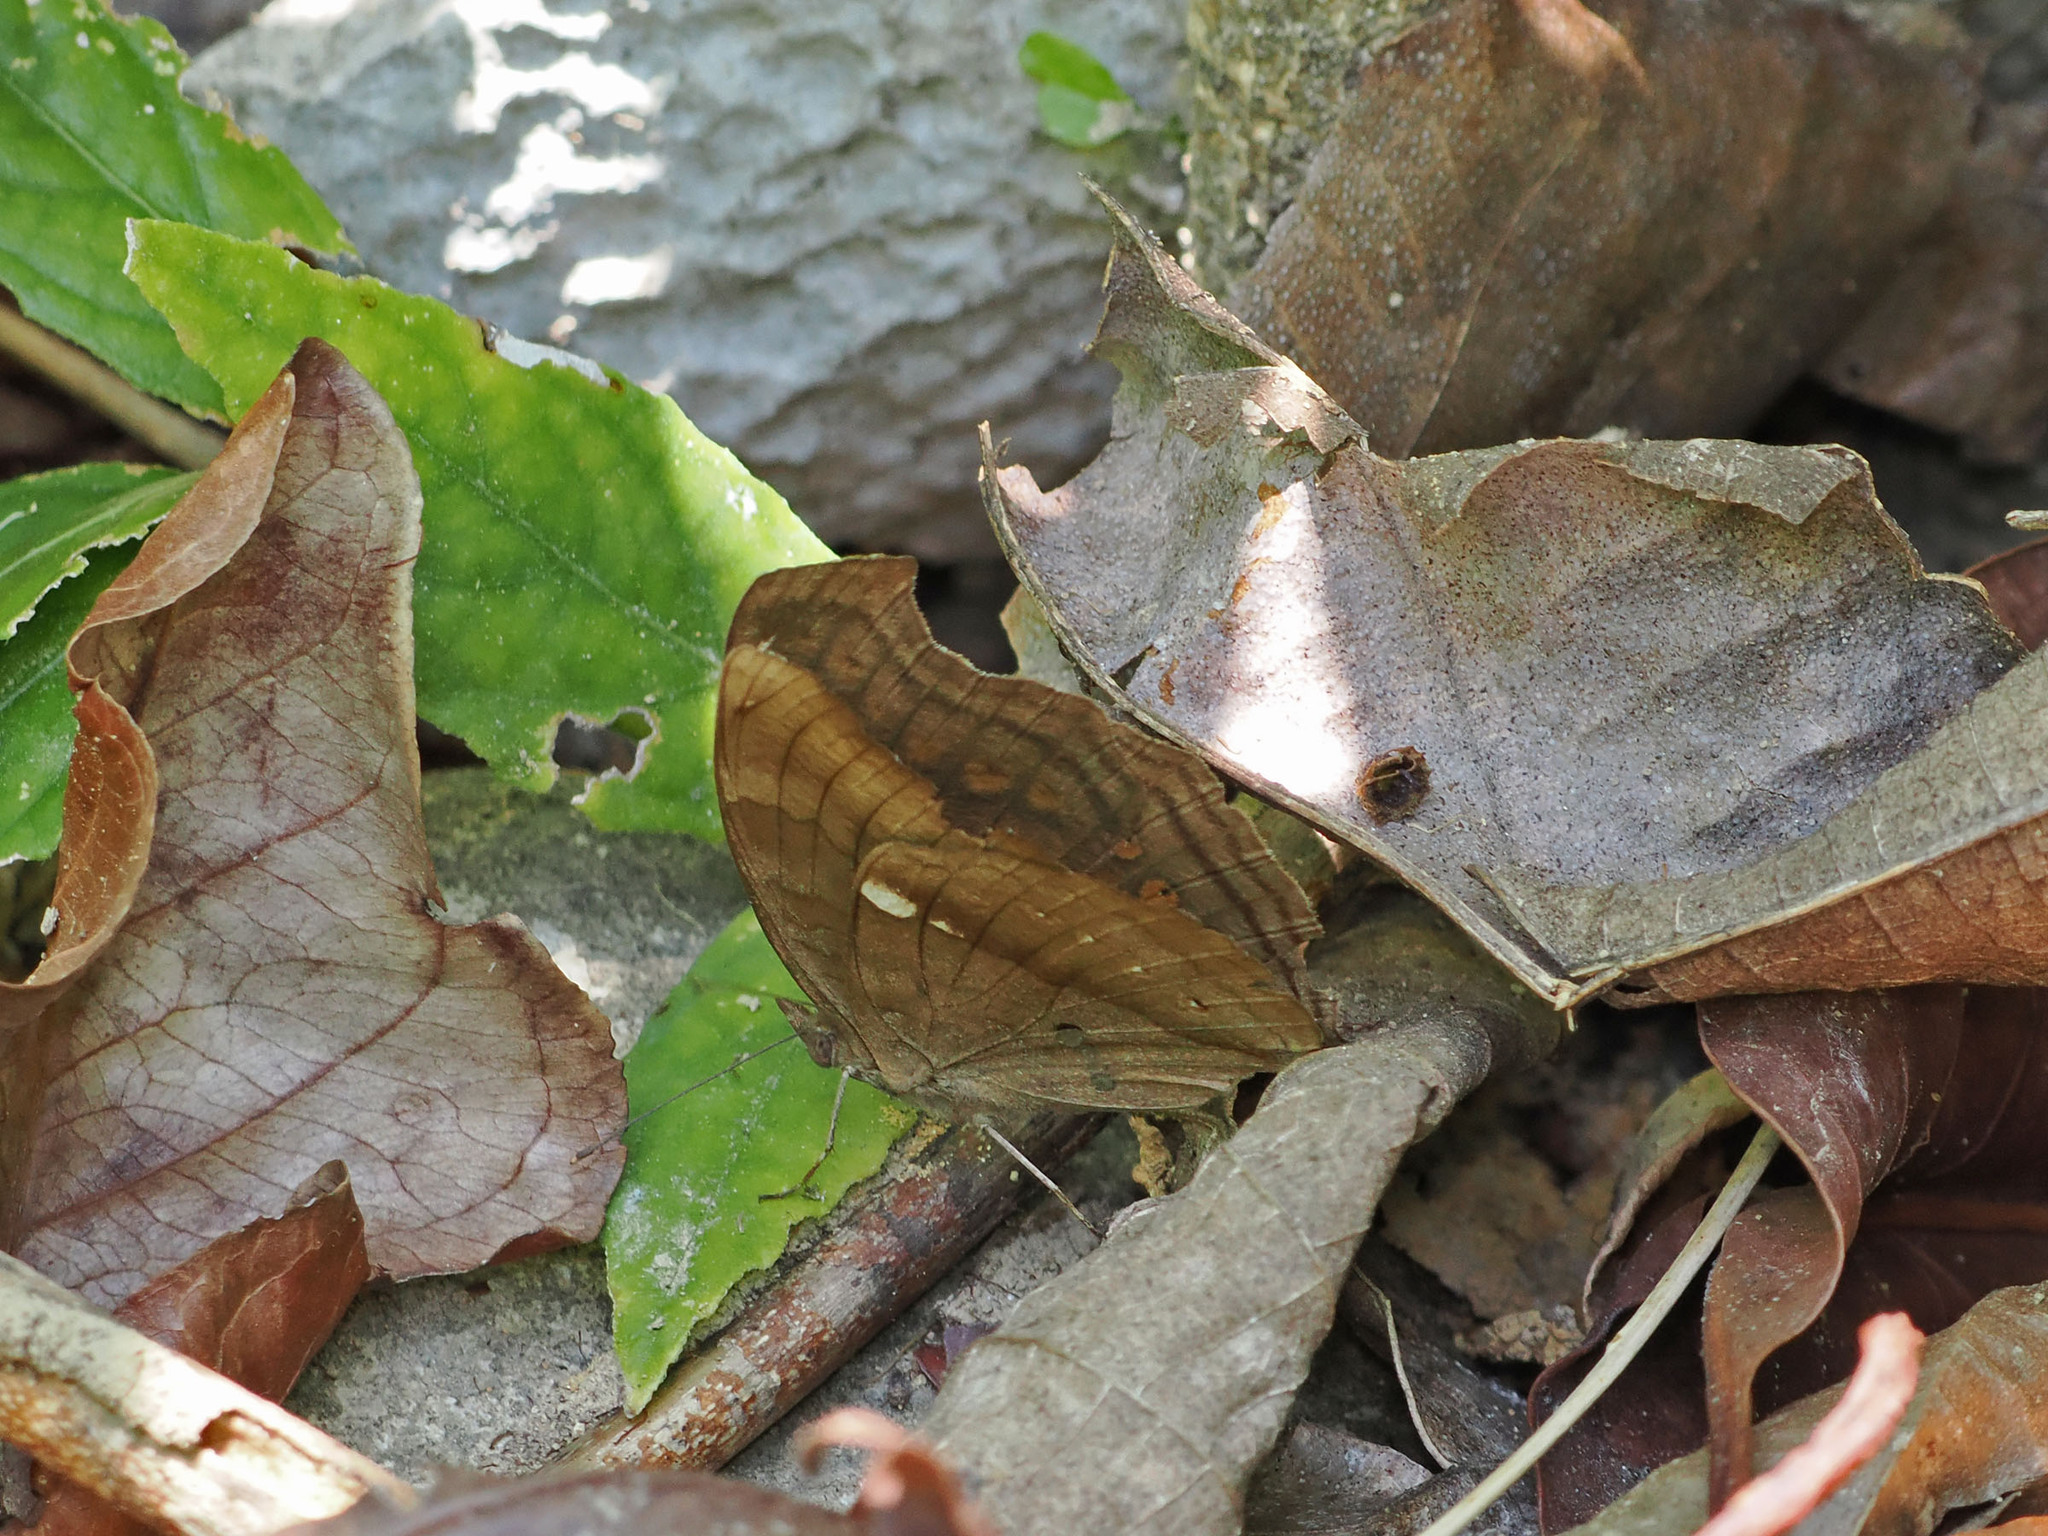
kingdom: Animalia
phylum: Arthropoda
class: Insecta
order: Lepidoptera
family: Nymphalidae
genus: Junonia
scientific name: Junonia
